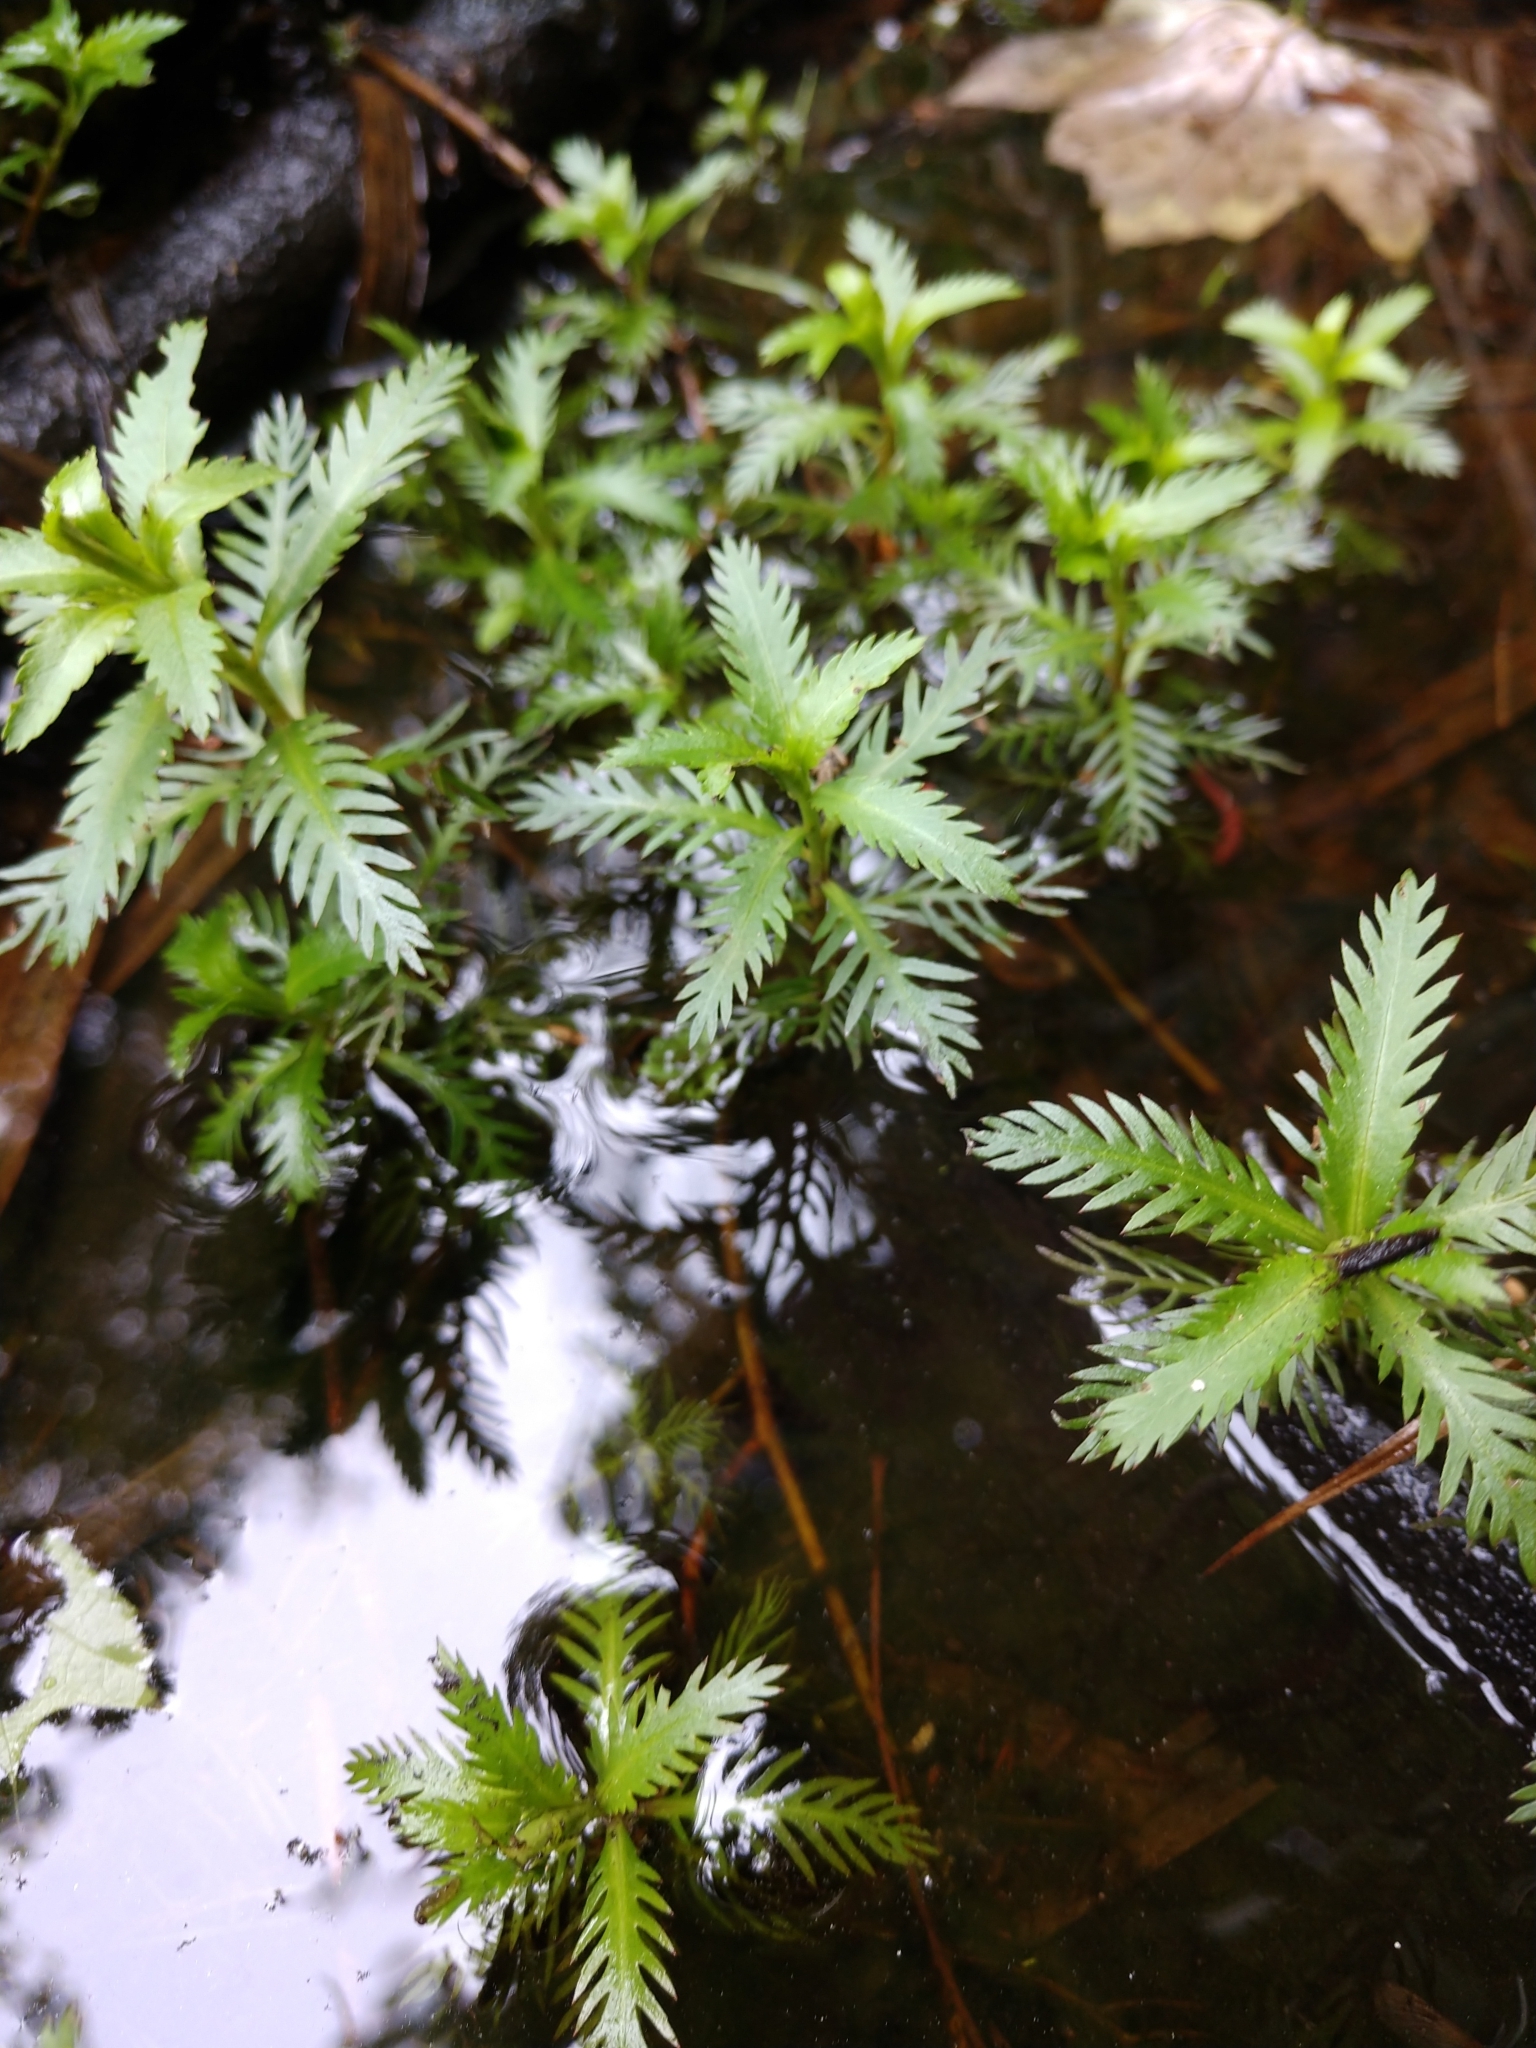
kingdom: Plantae
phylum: Tracheophyta
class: Magnoliopsida
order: Saxifragales
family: Haloragaceae
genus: Proserpinaca
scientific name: Proserpinaca palustris
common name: Marsh mermaidweed
